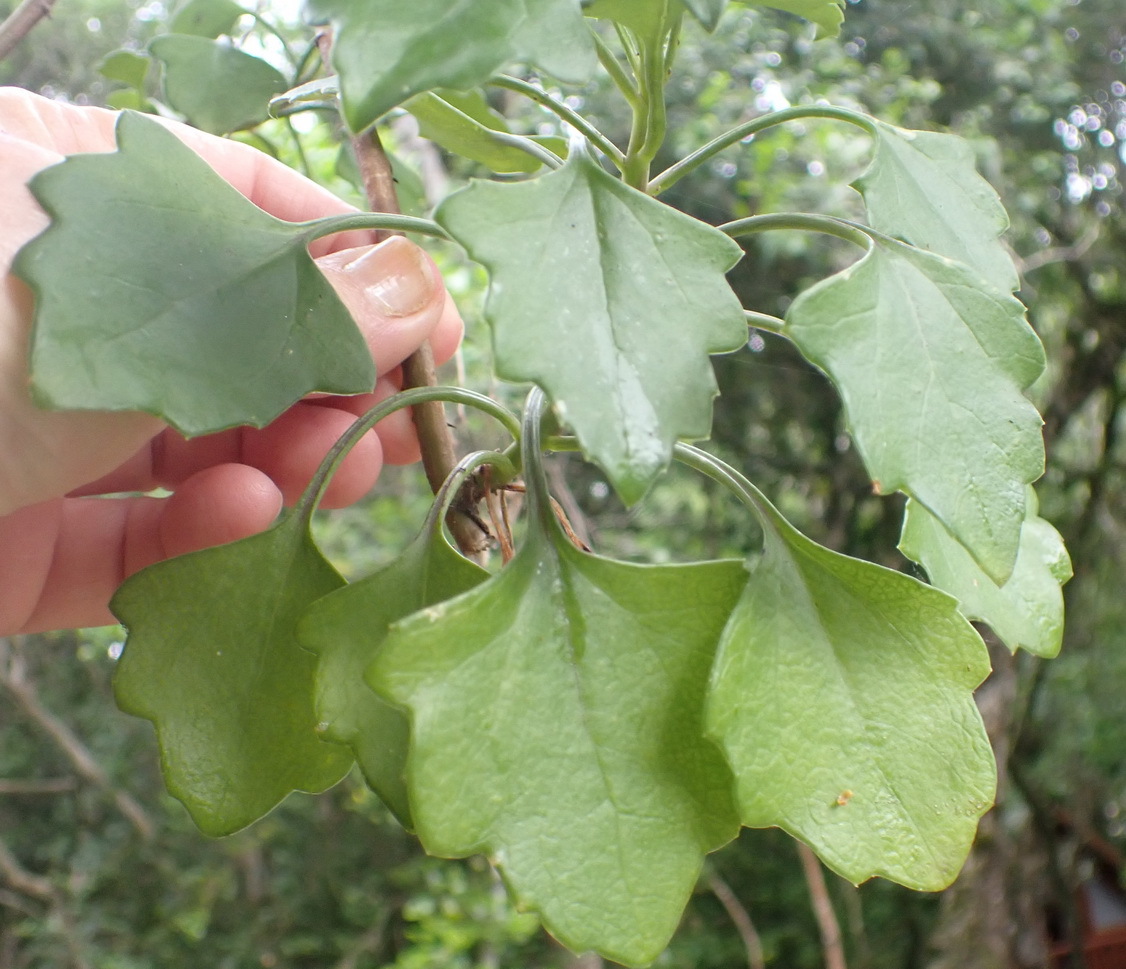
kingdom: Plantae
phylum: Tracheophyta
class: Magnoliopsida
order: Asterales
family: Asteraceae
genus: Senecio
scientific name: Senecio angulatus
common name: Climbing groundsel
